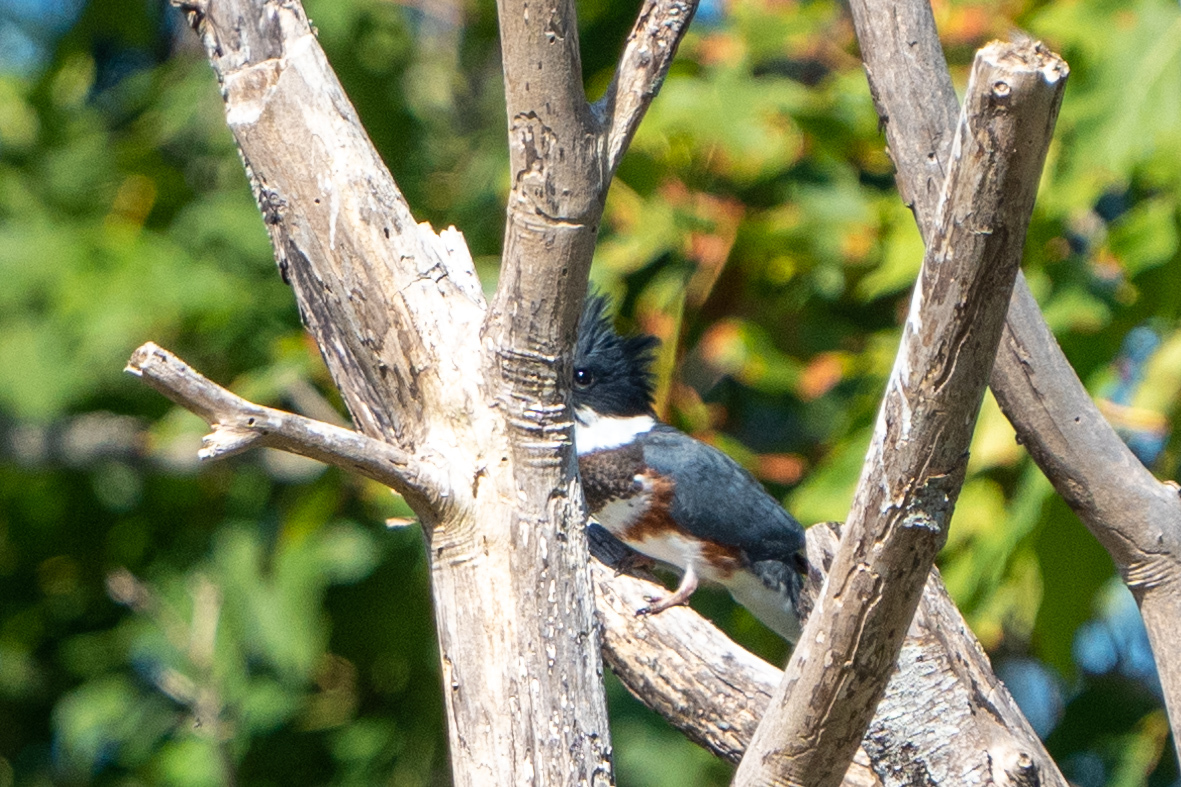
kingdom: Animalia
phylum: Chordata
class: Aves
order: Coraciiformes
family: Alcedinidae
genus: Megaceryle
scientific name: Megaceryle alcyon
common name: Belted kingfisher
